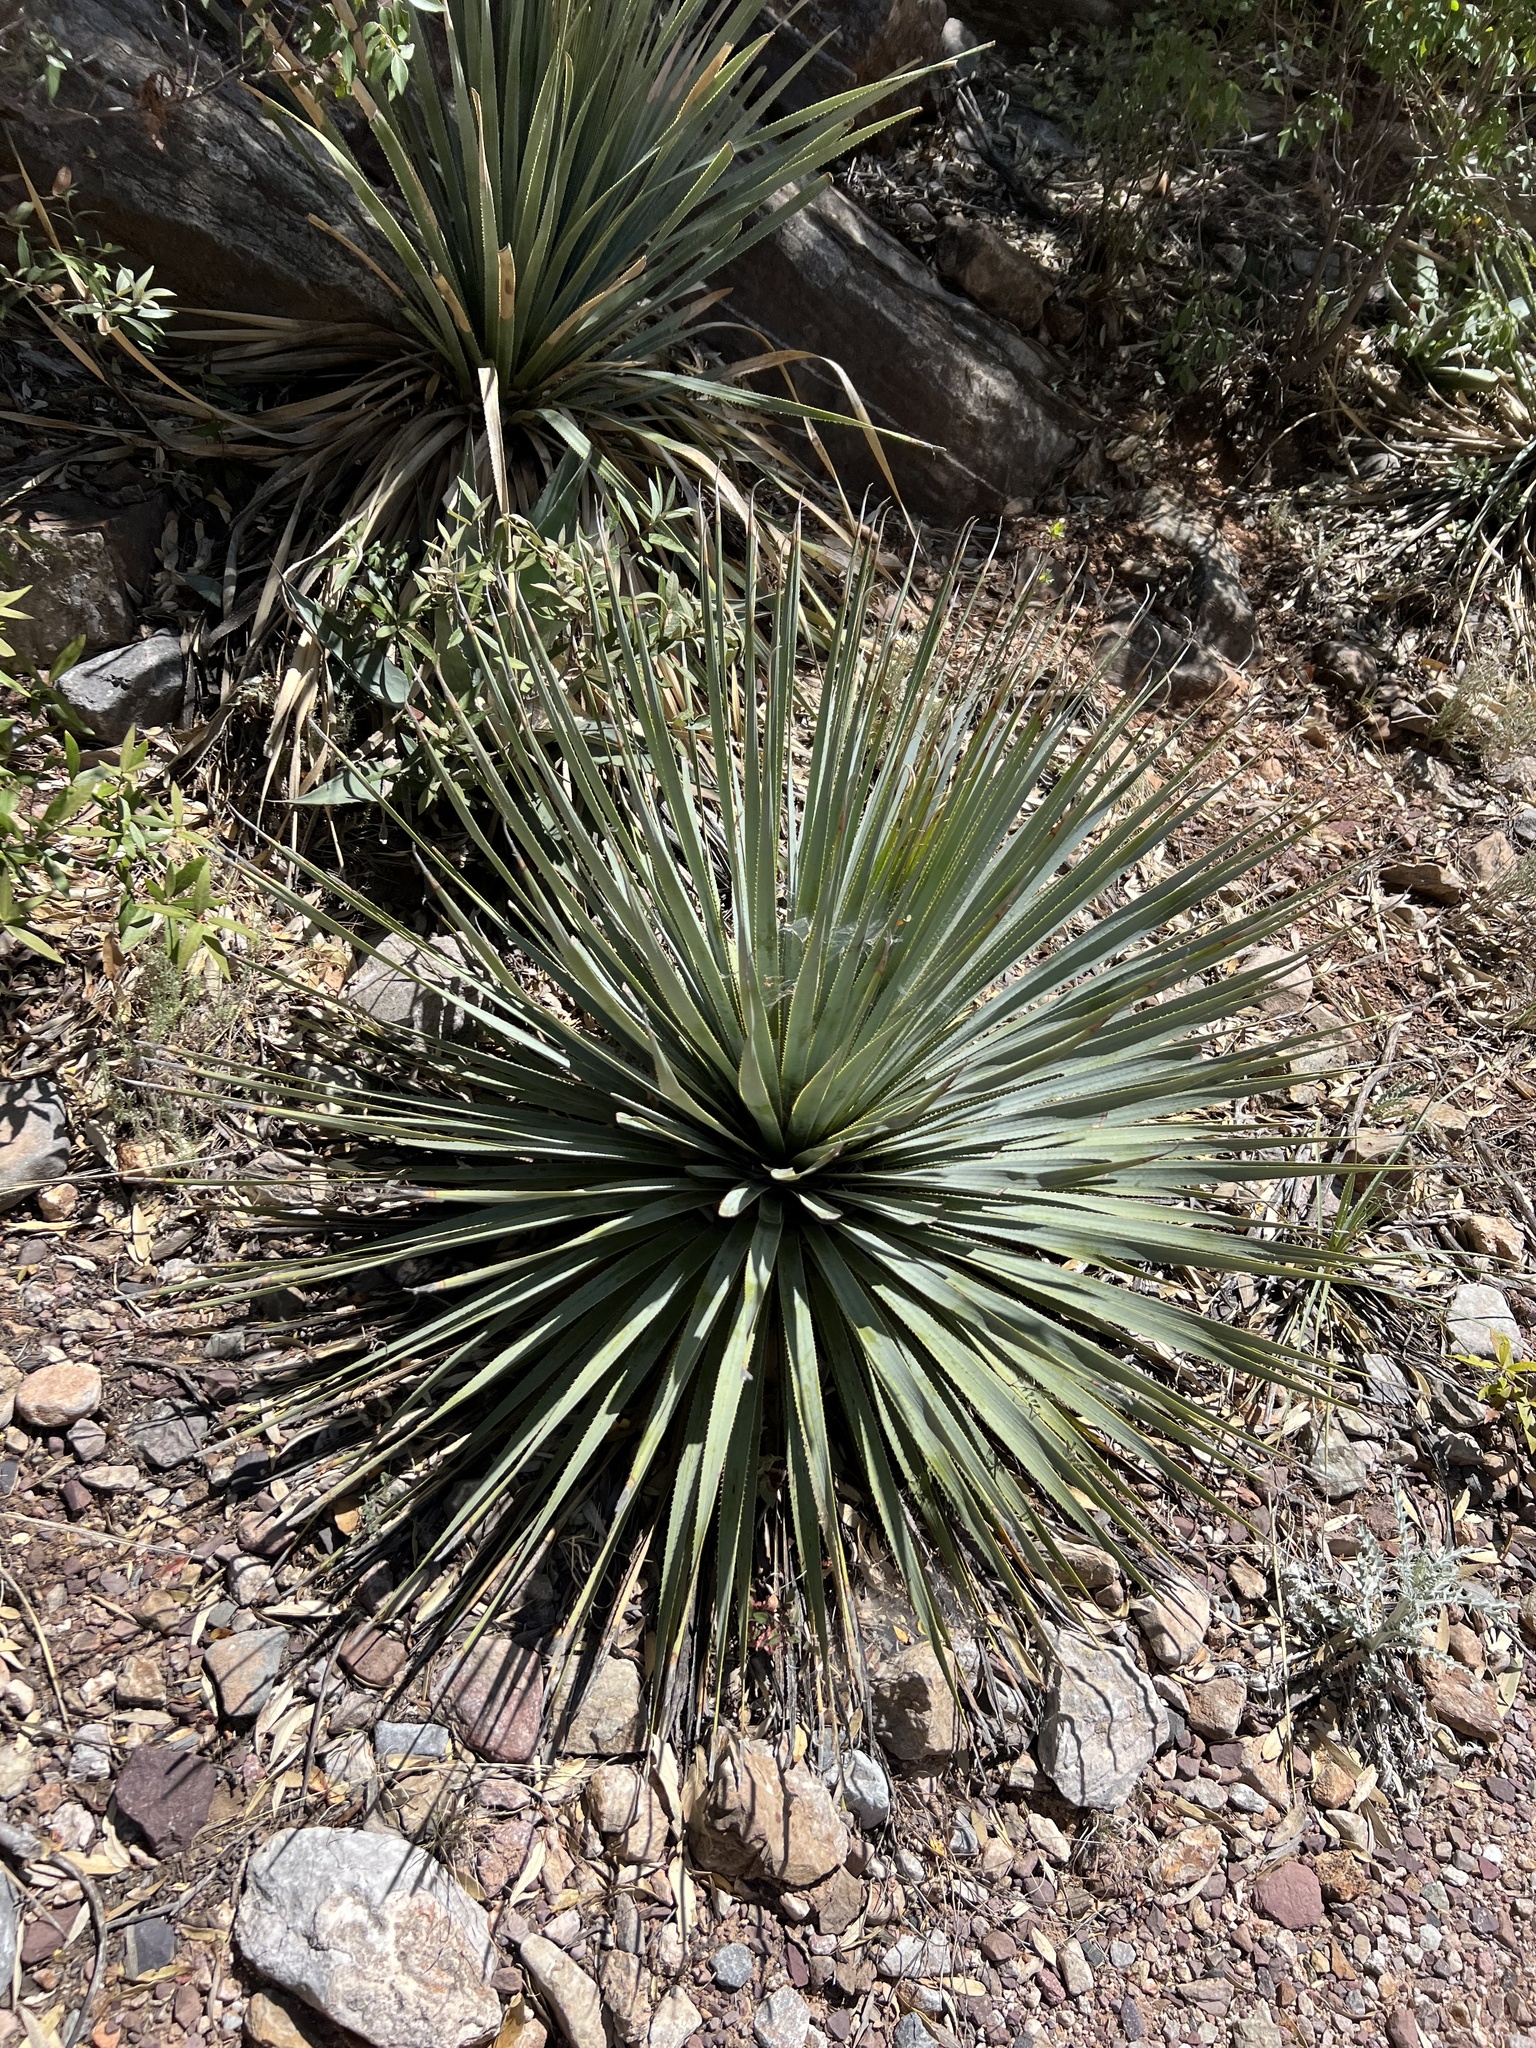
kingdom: Plantae
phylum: Tracheophyta
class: Liliopsida
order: Asparagales
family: Asparagaceae
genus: Dasylirion
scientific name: Dasylirion wheeleri
